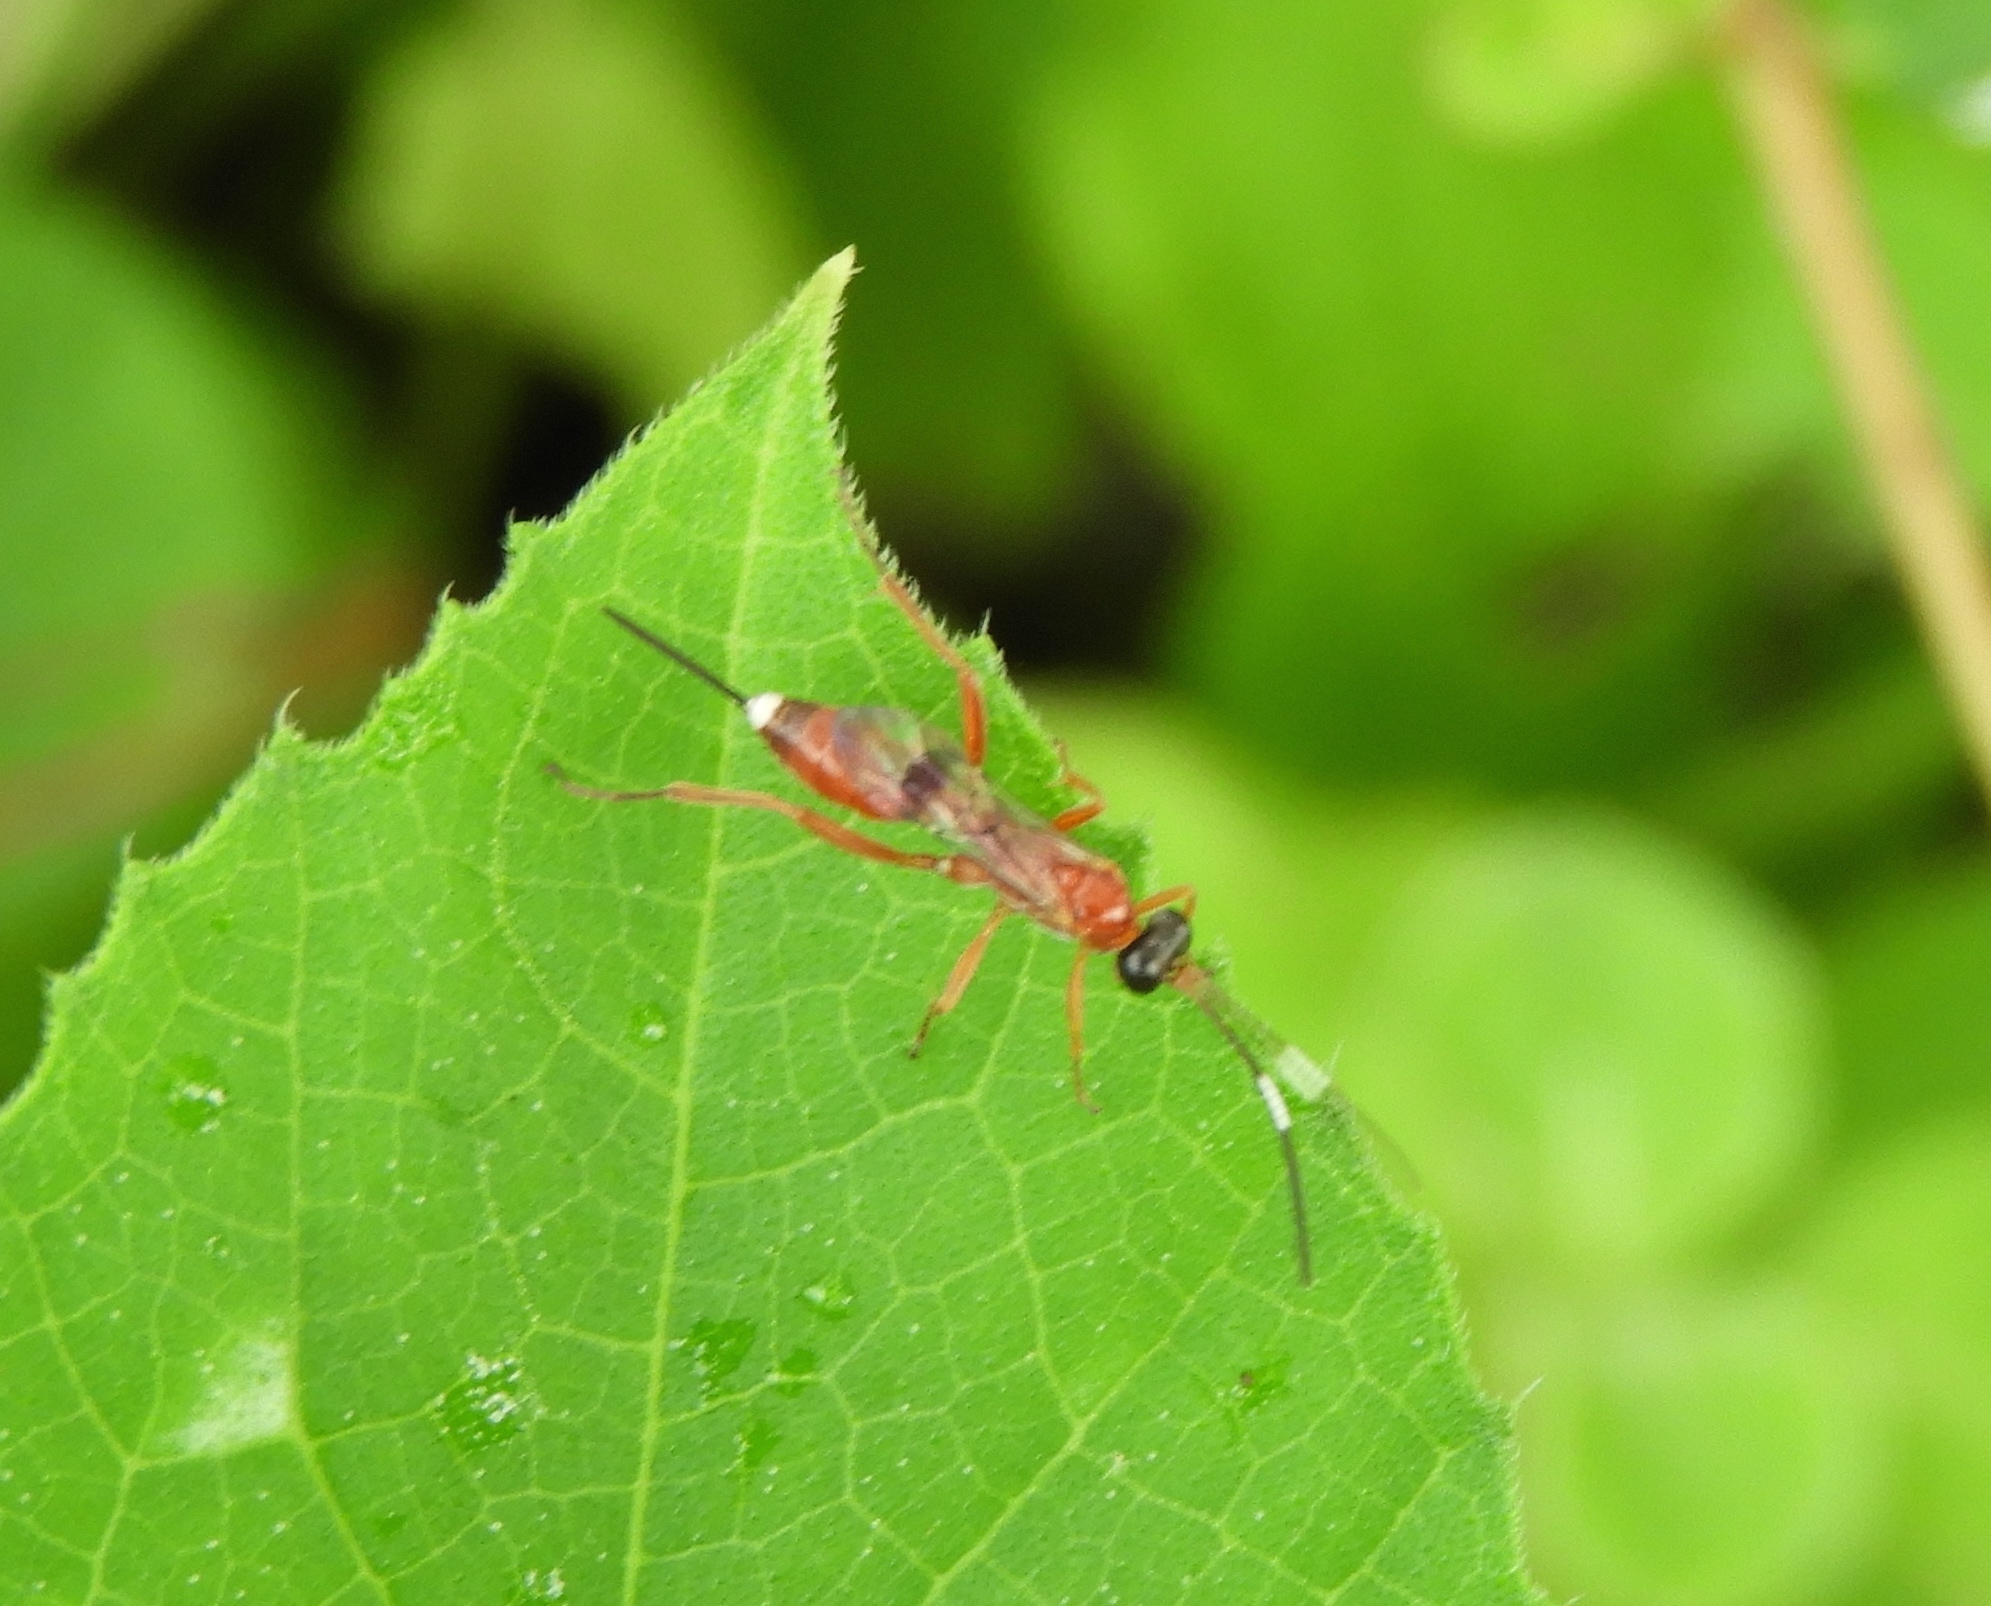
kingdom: Animalia
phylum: Arthropoda
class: Insecta
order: Hymenoptera
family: Ichneumonidae
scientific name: Ichneumonidae
